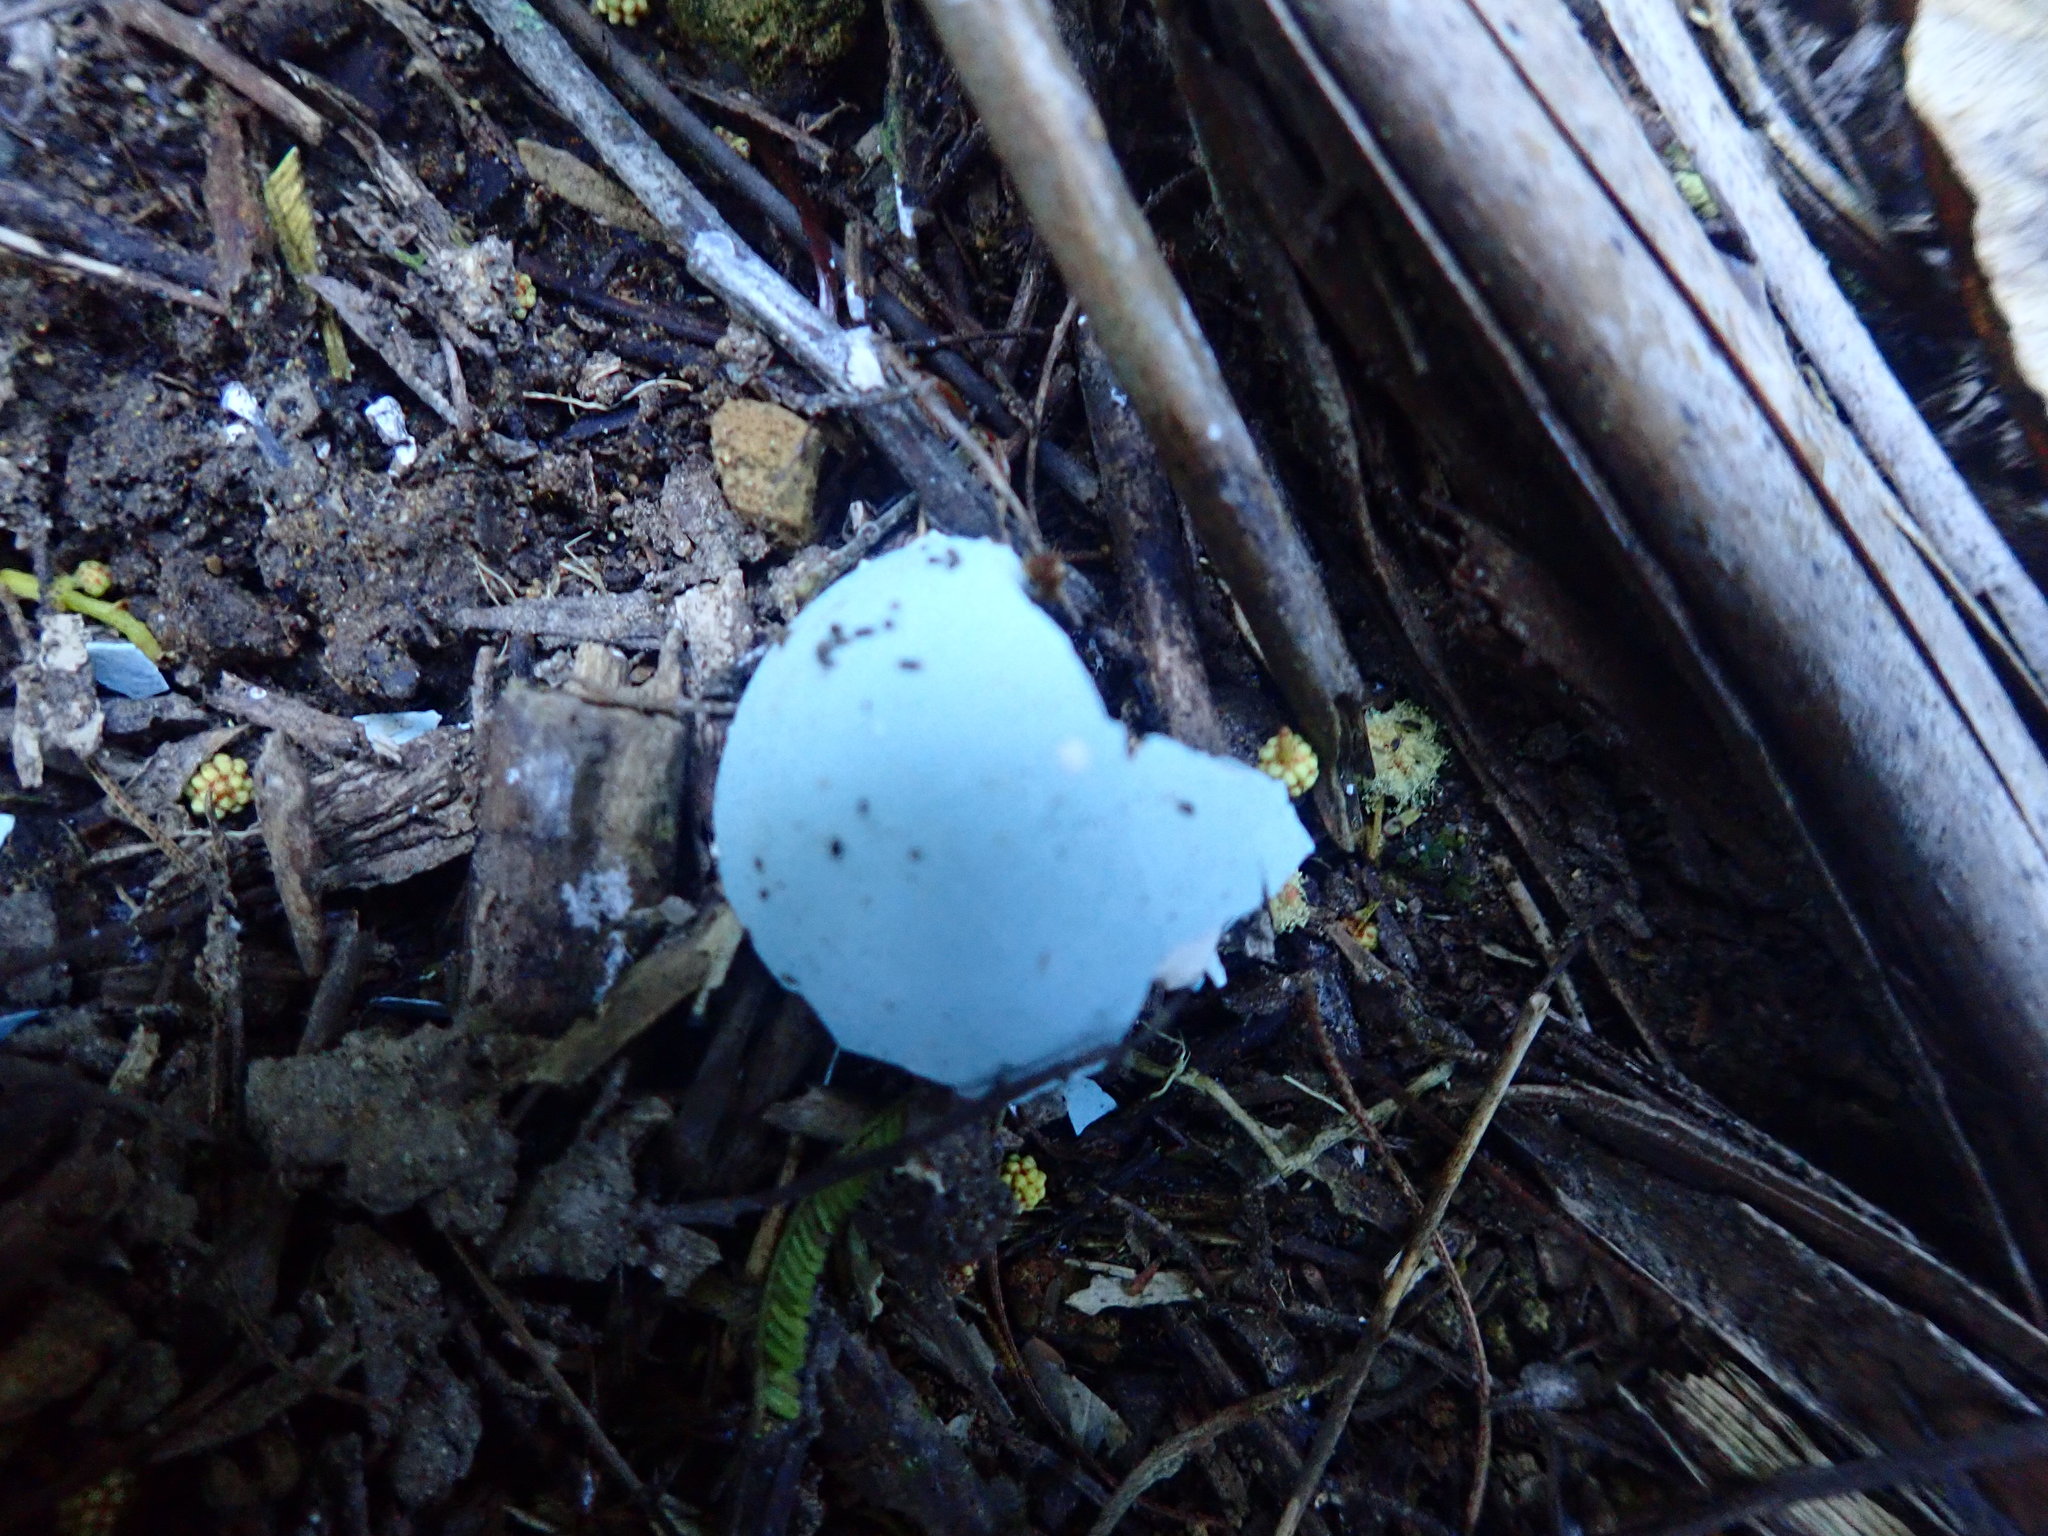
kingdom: Animalia
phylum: Chordata
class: Aves
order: Passeriformes
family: Turdidae
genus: Turdus
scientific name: Turdus philomelos
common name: Song thrush
